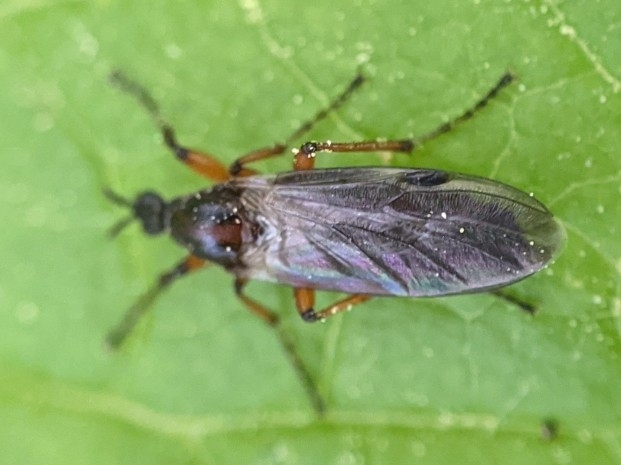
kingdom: Animalia
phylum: Arthropoda
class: Insecta
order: Diptera
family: Bibionidae
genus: Bibio
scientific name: Bibio articulatus
